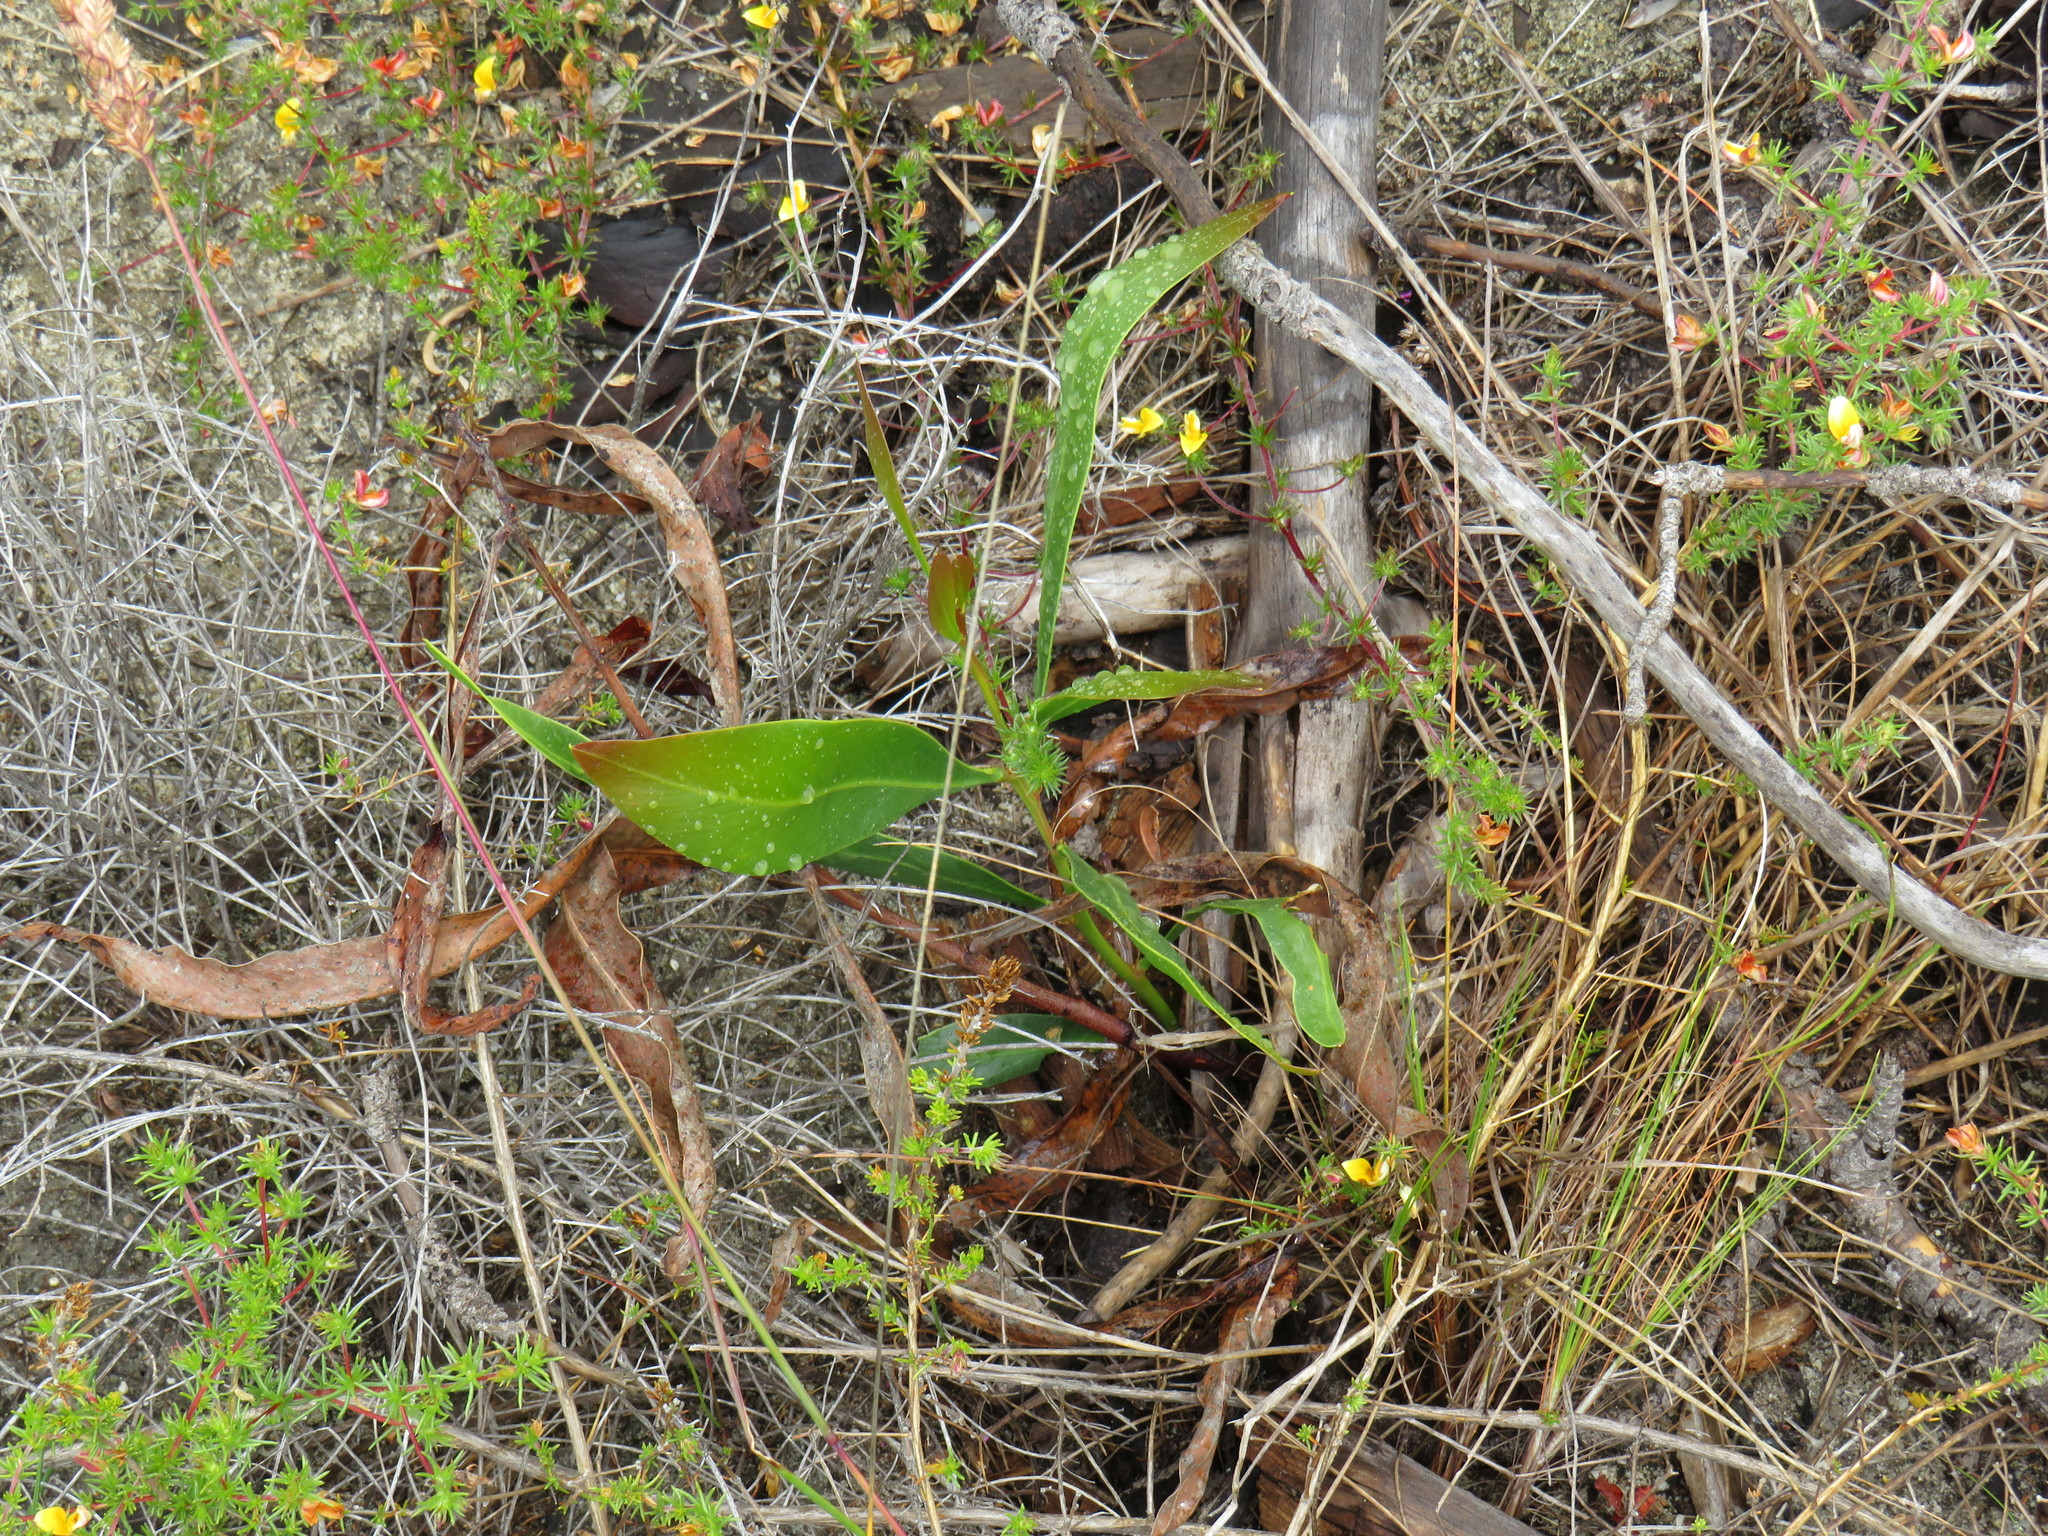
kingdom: Plantae
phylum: Tracheophyta
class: Magnoliopsida
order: Fabales
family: Fabaceae
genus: Acacia
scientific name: Acacia saligna
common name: Orange wattle
